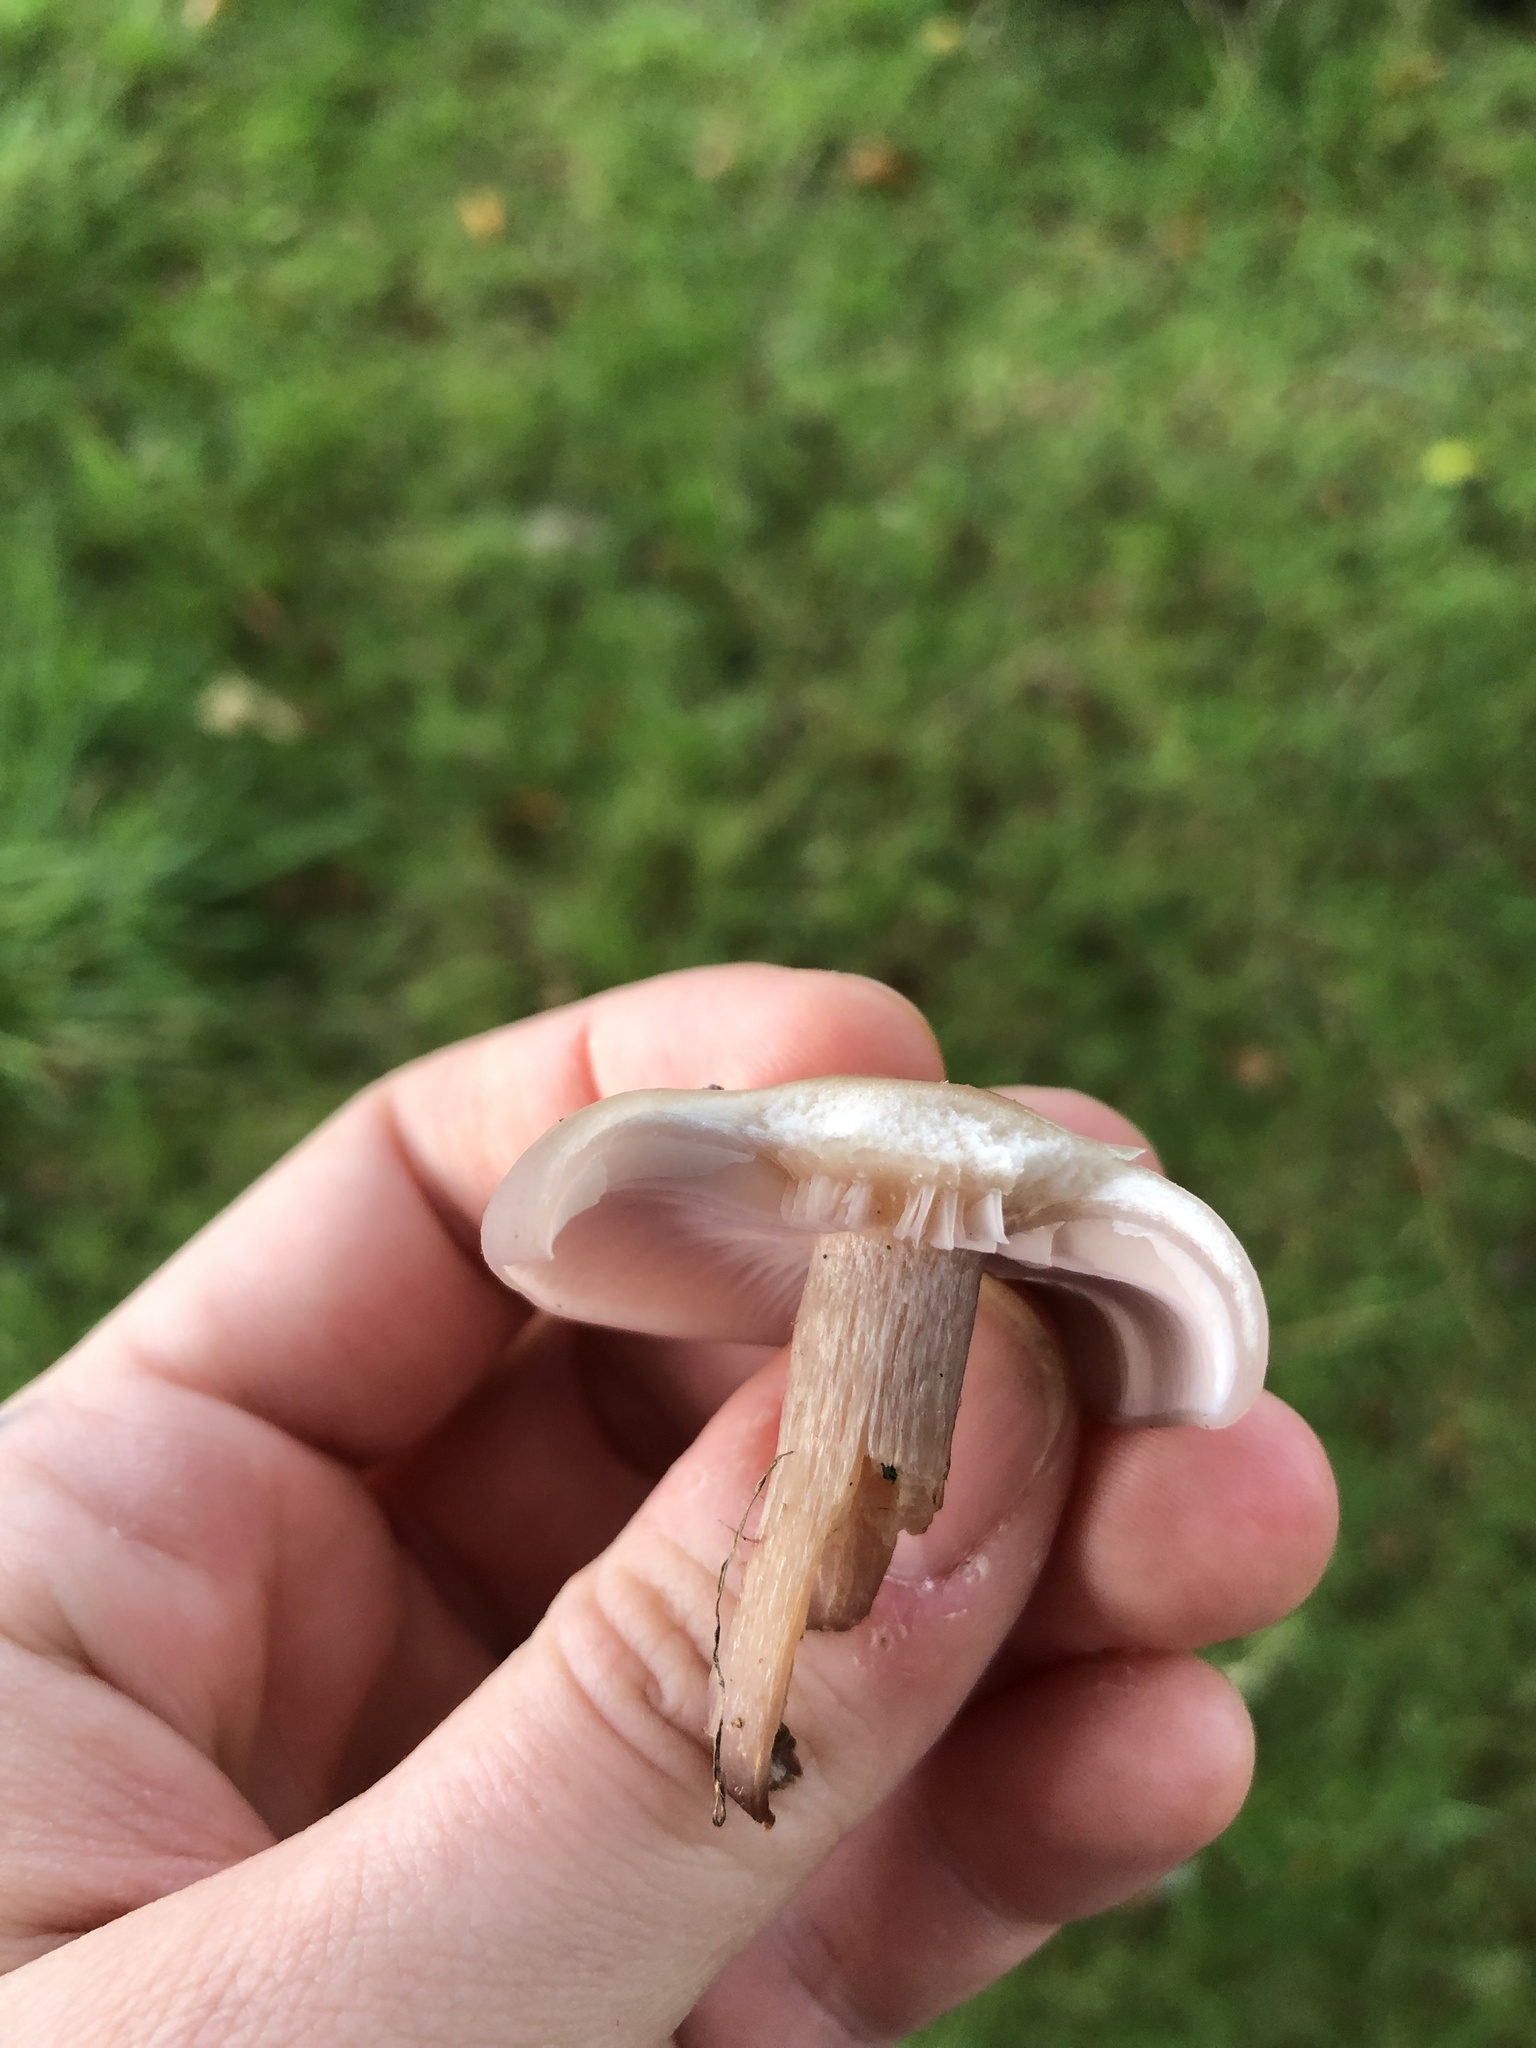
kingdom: Fungi
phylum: Basidiomycota
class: Agaricomycetes
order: Agaricales
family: Tricholomataceae
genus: Collybia
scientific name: Collybia
